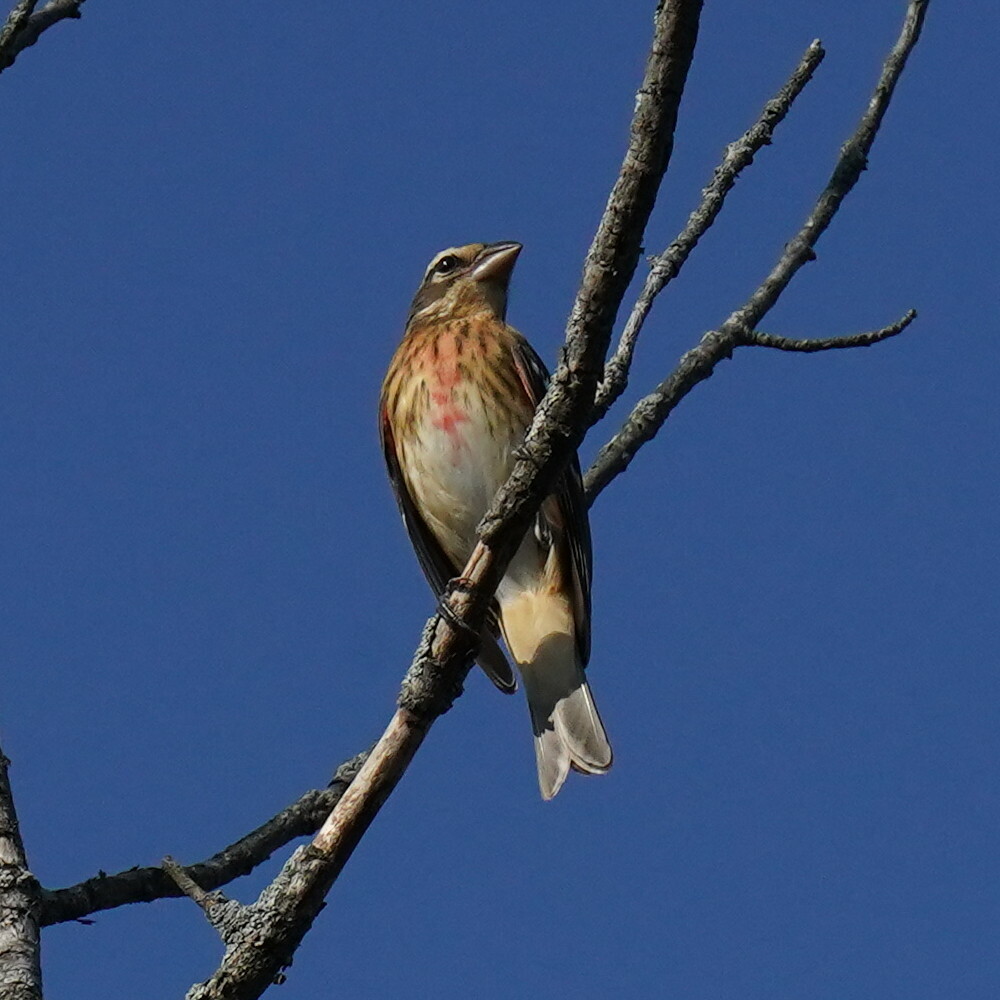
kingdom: Animalia
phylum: Chordata
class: Aves
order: Passeriformes
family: Cardinalidae
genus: Pheucticus
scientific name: Pheucticus ludovicianus
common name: Rose-breasted grosbeak
